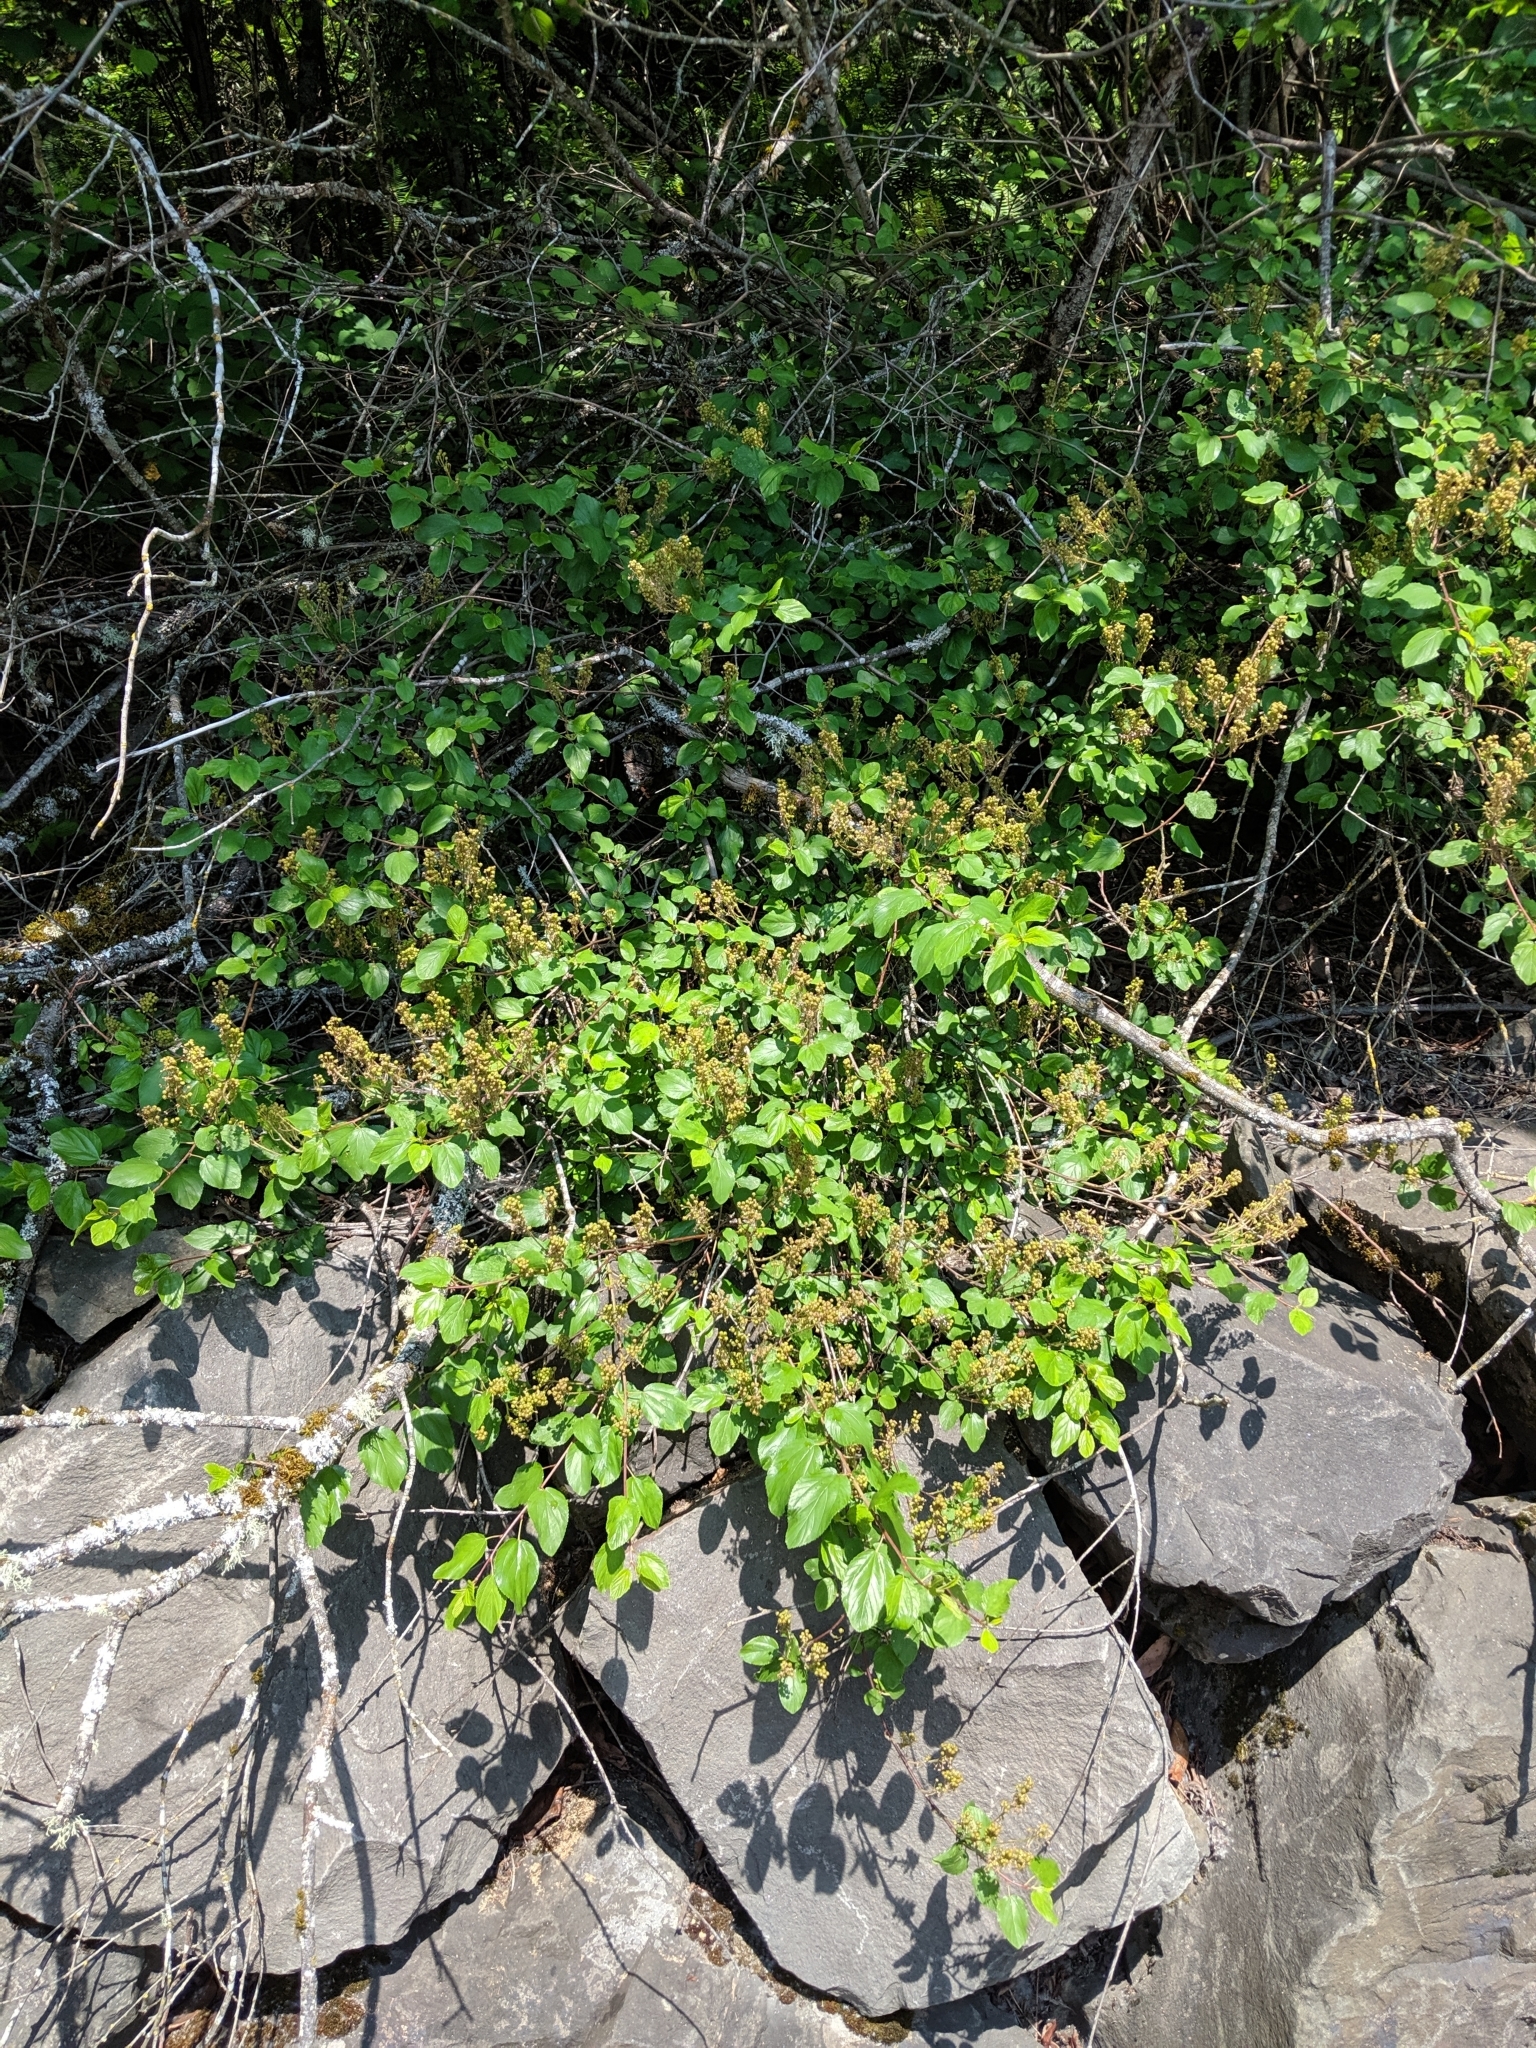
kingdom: Plantae
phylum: Tracheophyta
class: Magnoliopsida
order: Rosales
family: Rhamnaceae
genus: Ceanothus
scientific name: Ceanothus sanguineus
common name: Teatree
